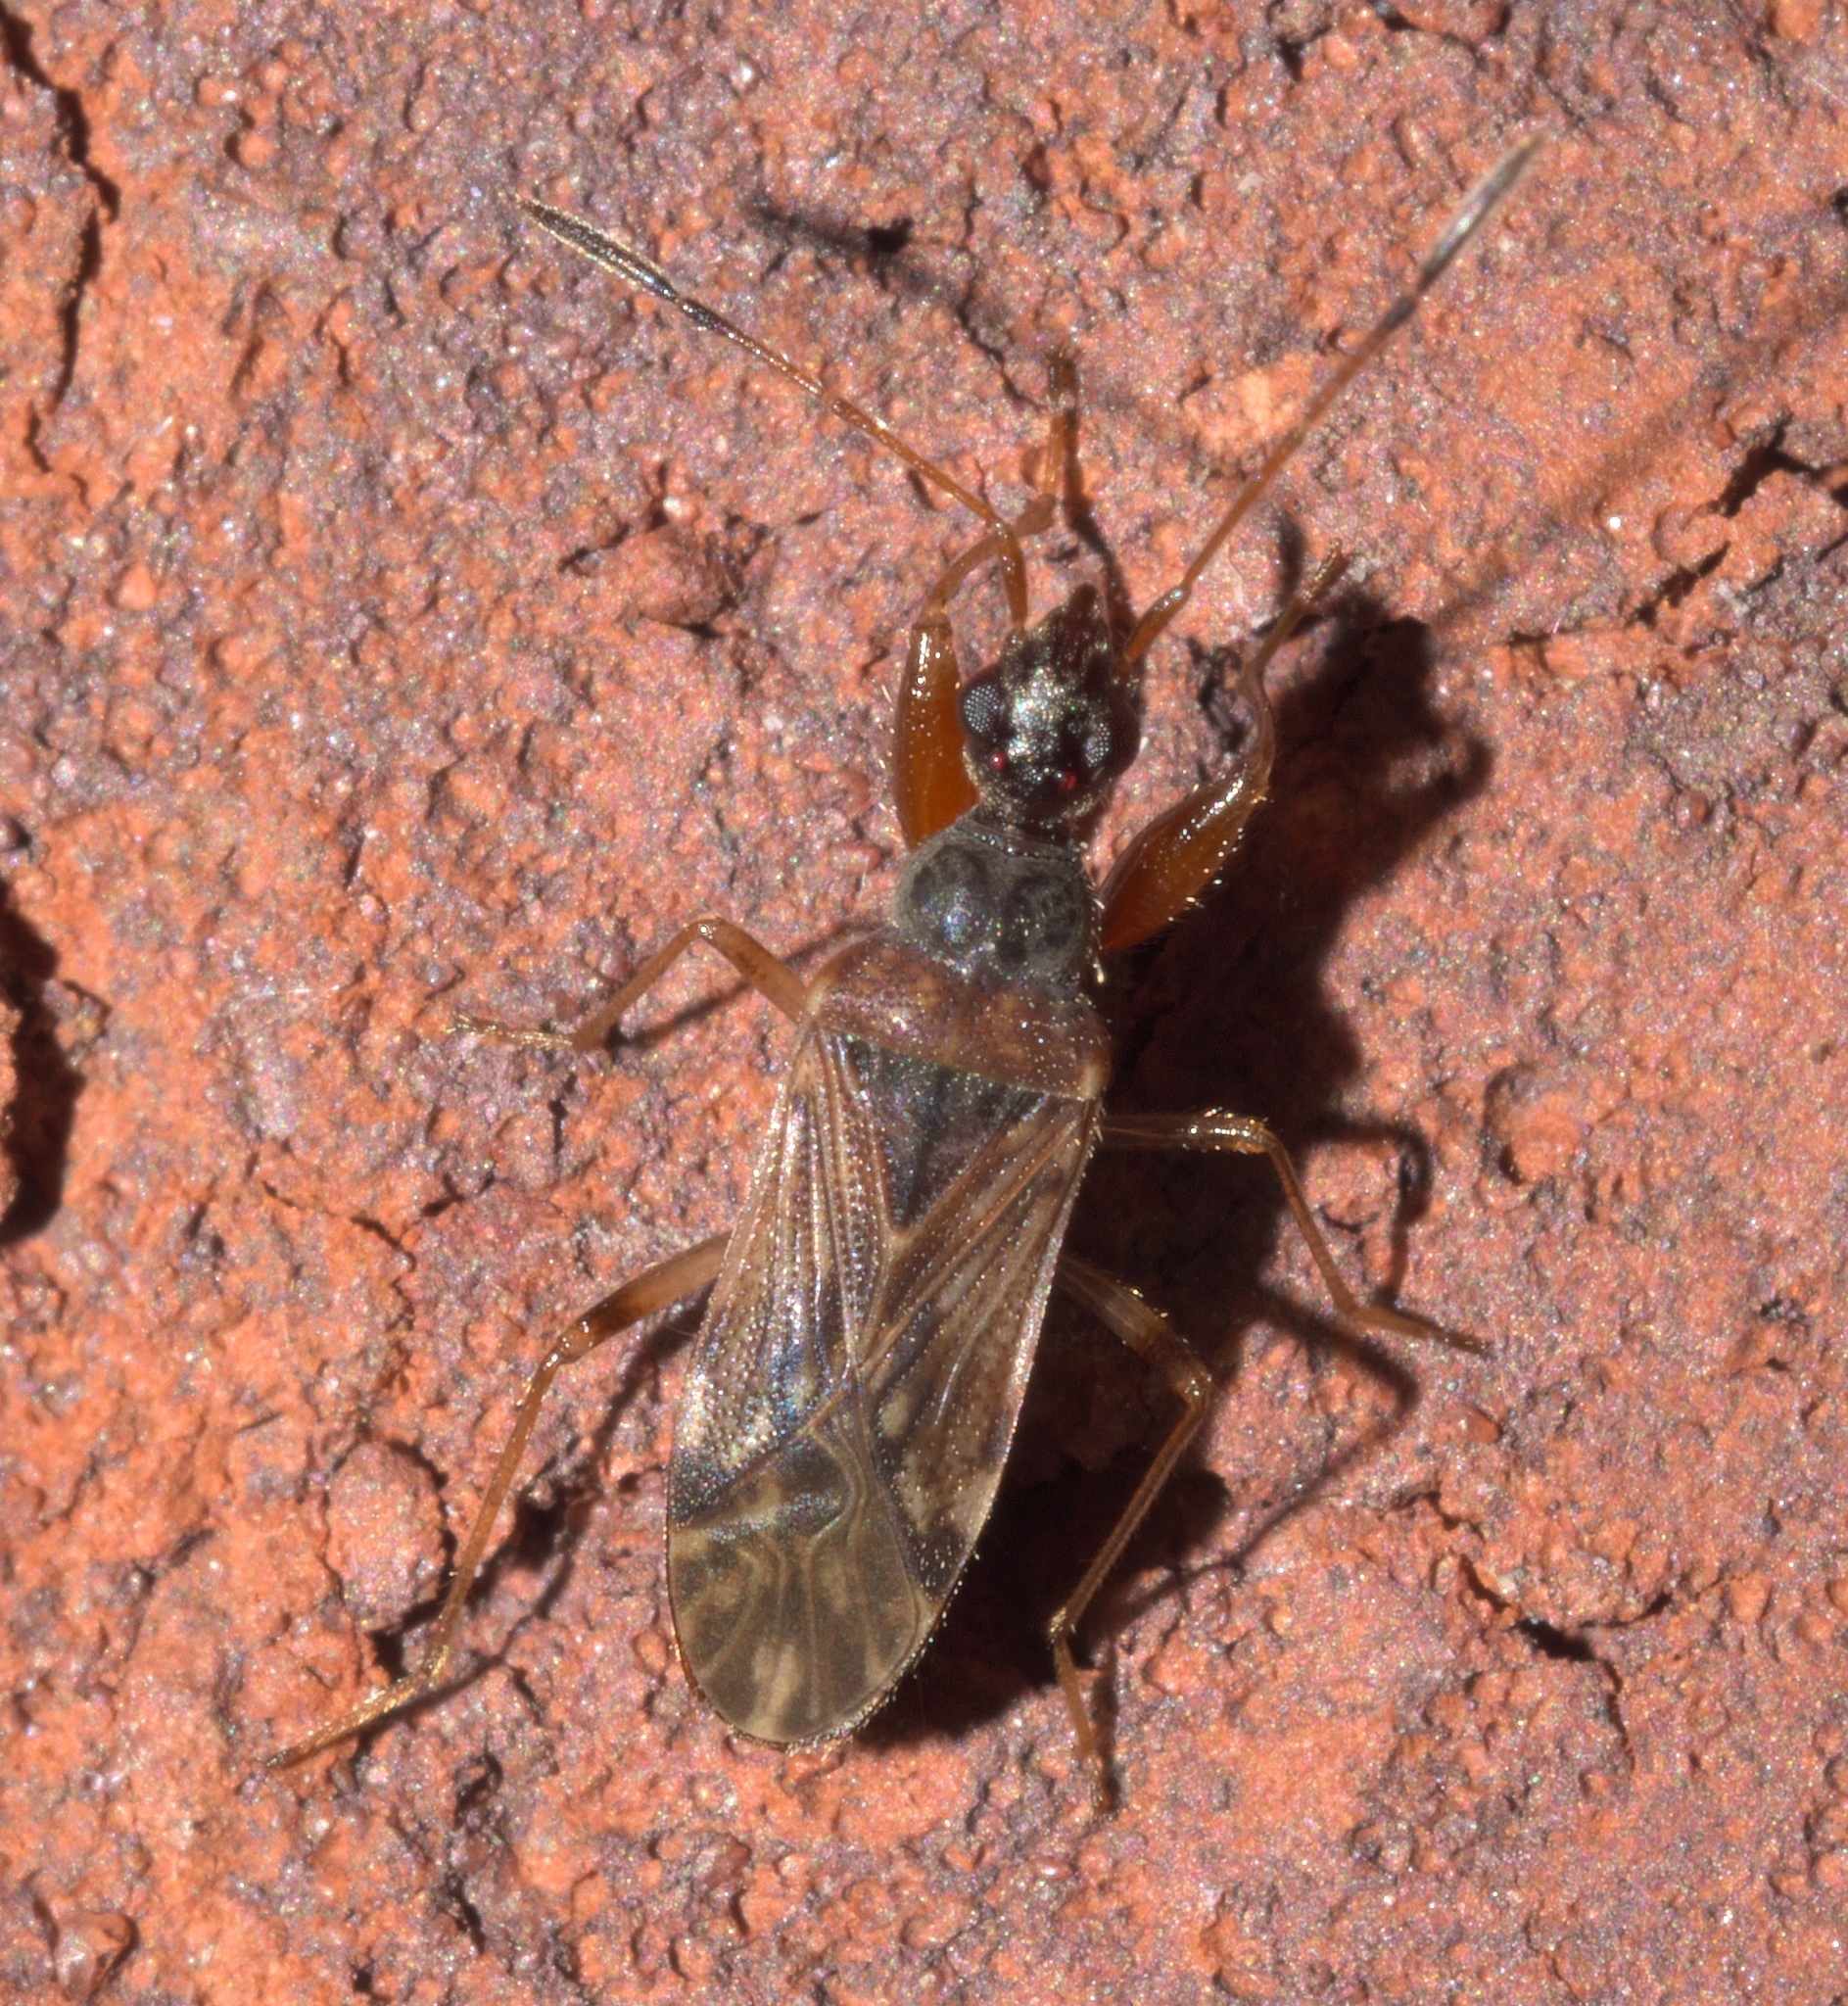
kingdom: Animalia
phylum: Arthropoda
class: Insecta
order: Hemiptera
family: Rhyparochromidae
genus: Heraeus
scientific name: Heraeus plebejus
